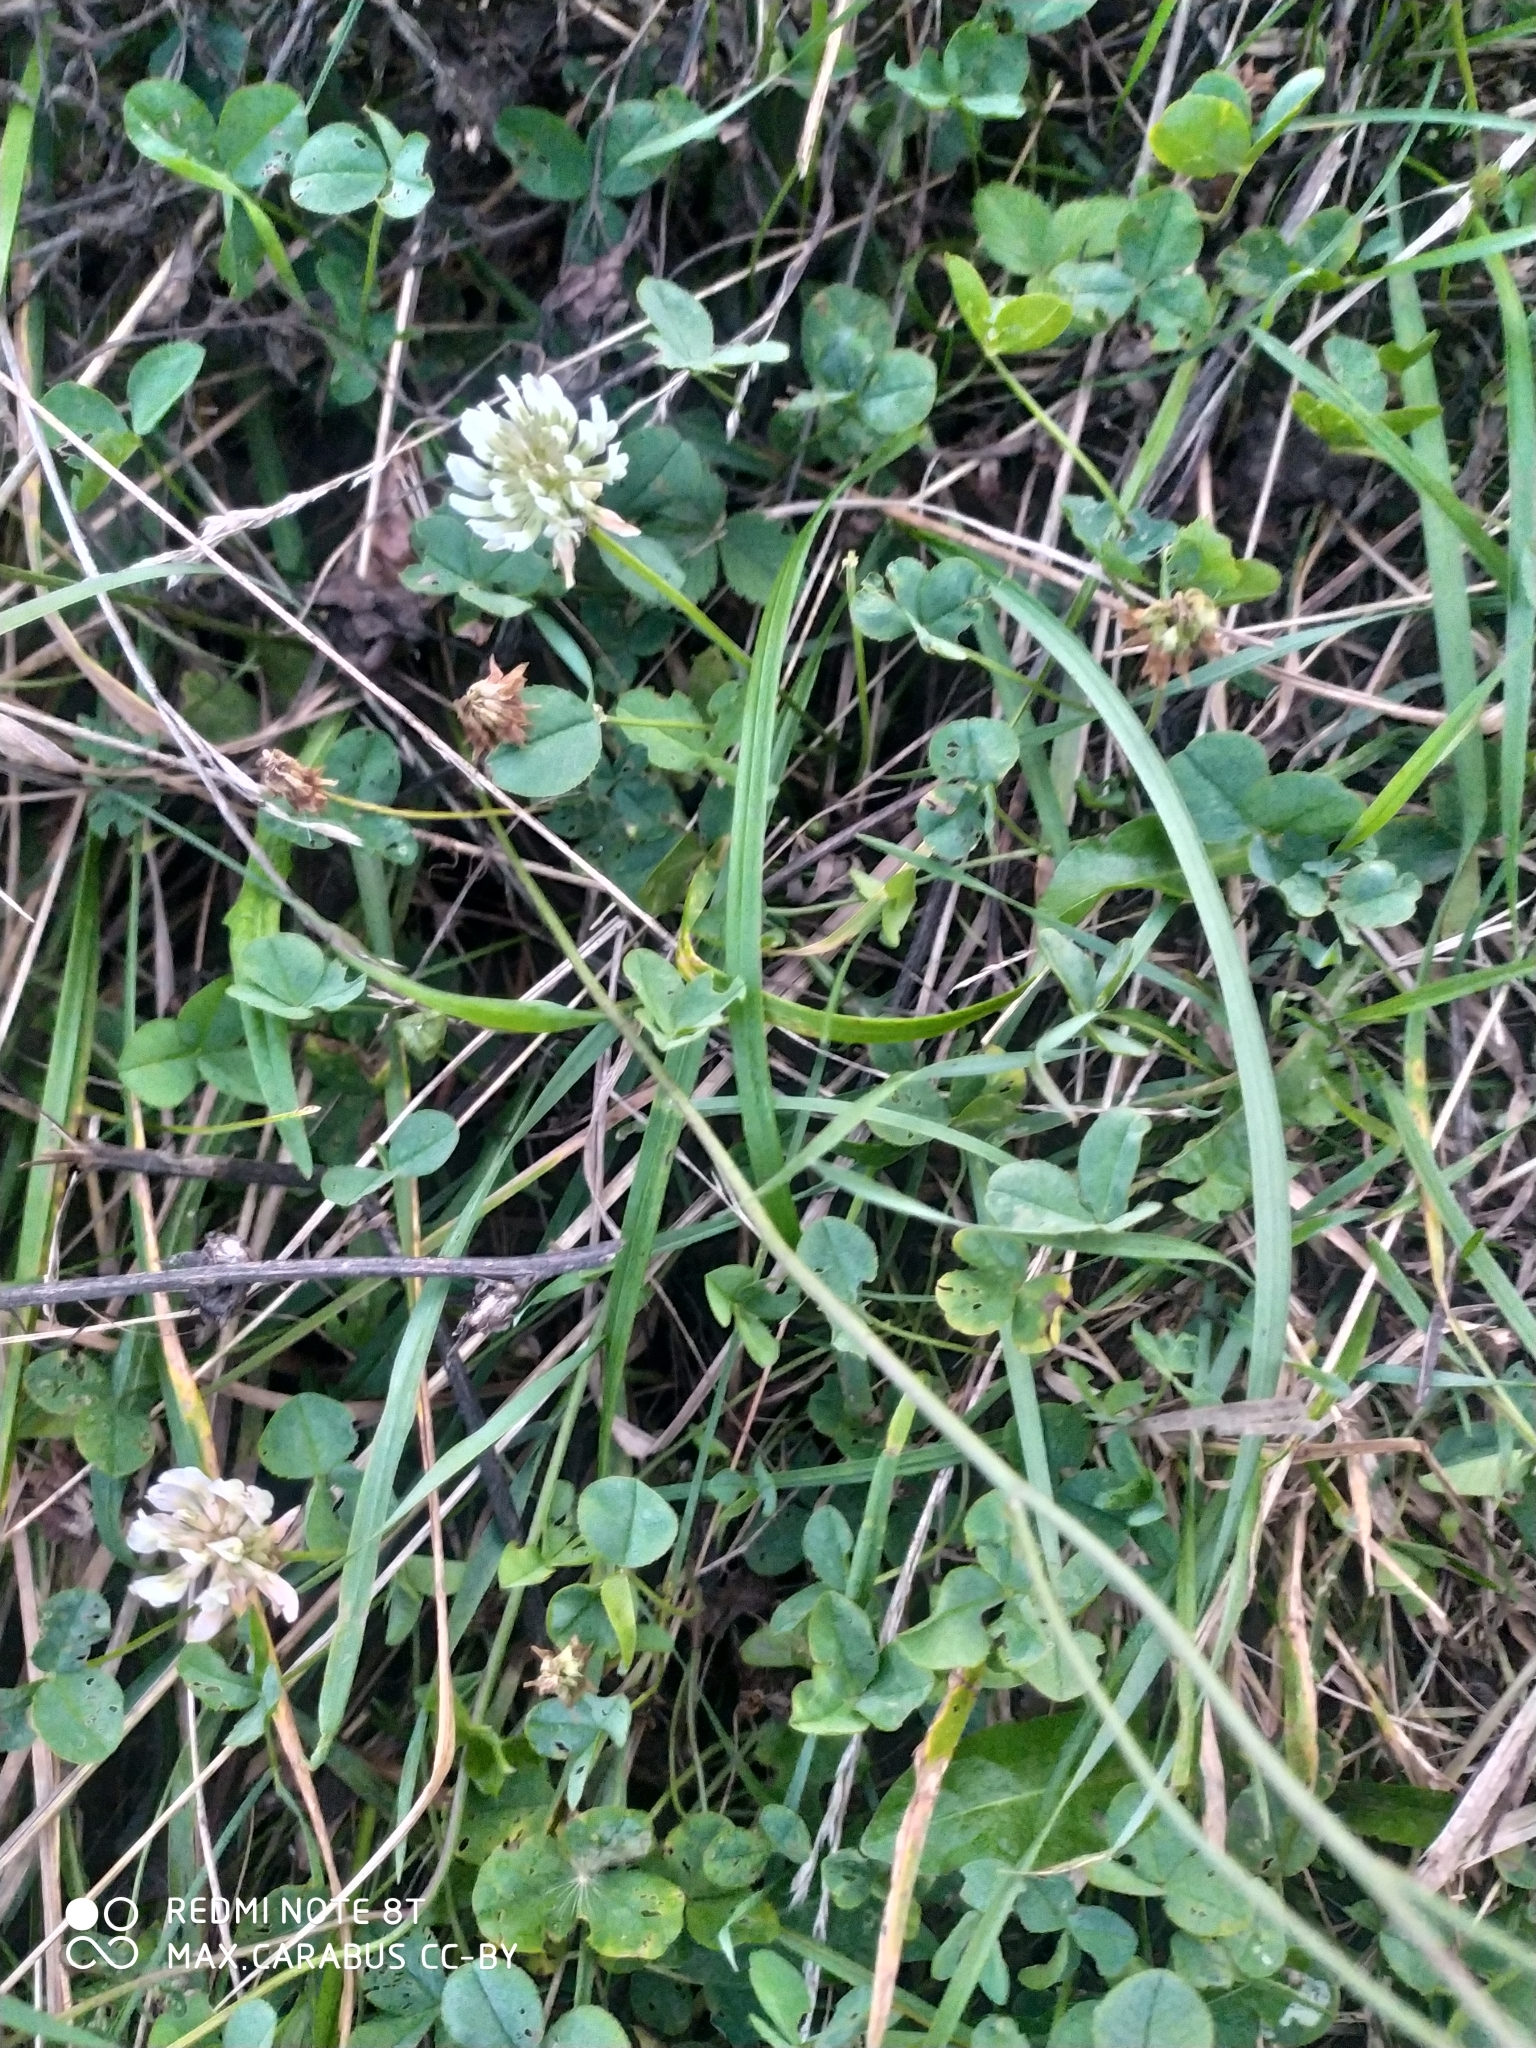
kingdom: Plantae
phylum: Tracheophyta
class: Magnoliopsida
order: Fabales
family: Fabaceae
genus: Trifolium
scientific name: Trifolium repens
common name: White clover
